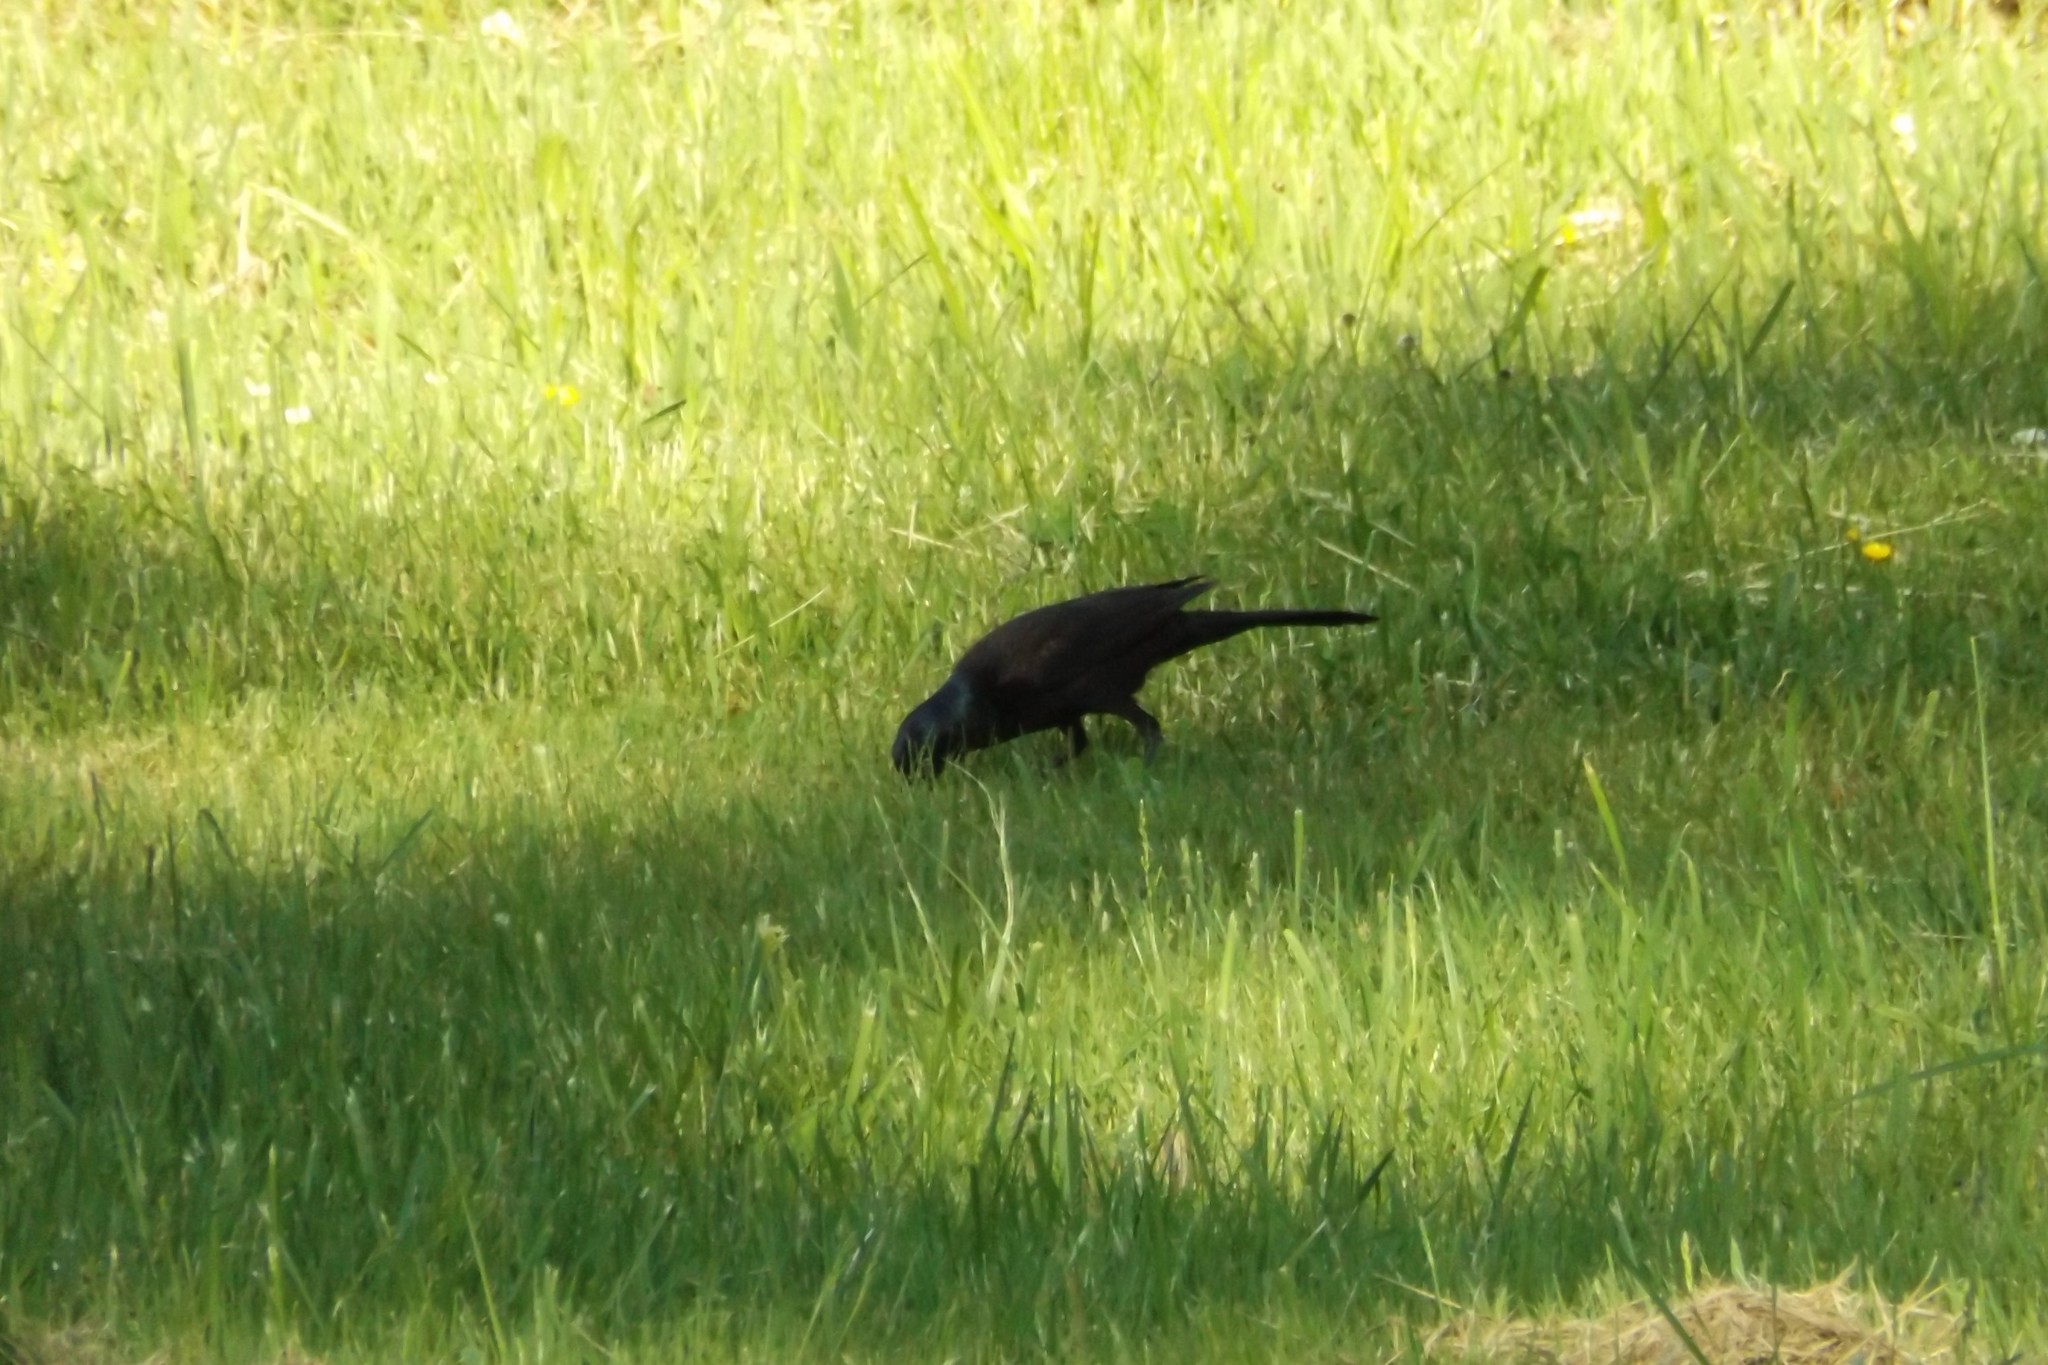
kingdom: Animalia
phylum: Chordata
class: Aves
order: Passeriformes
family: Icteridae
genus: Quiscalus
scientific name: Quiscalus quiscula
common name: Common grackle
